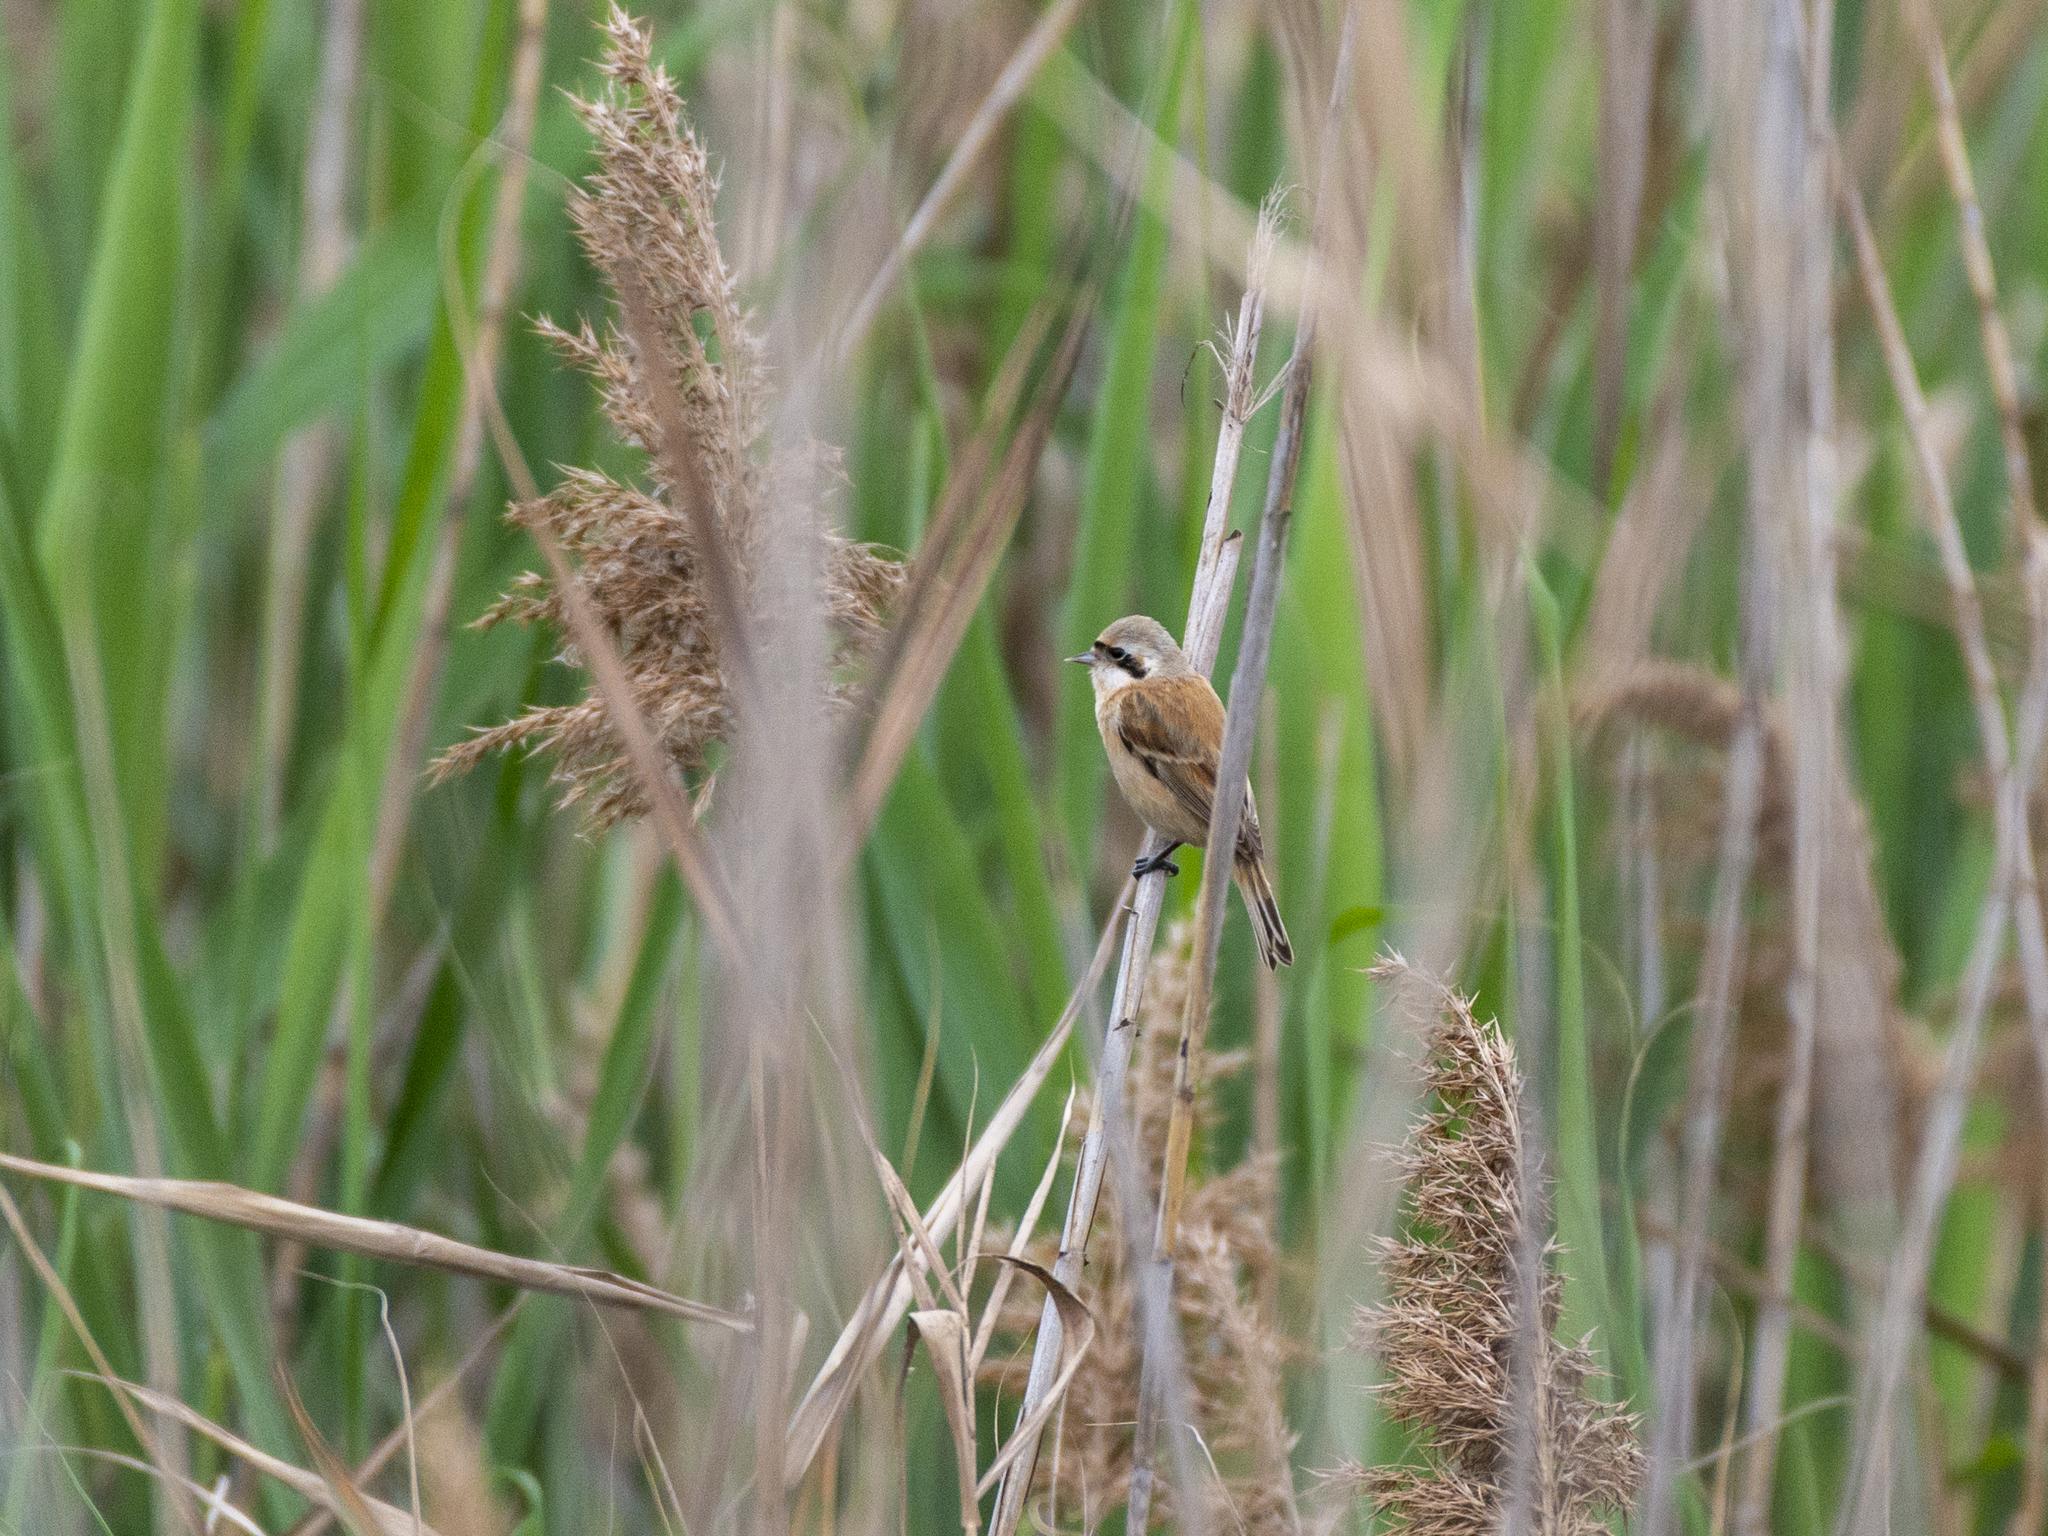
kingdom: Animalia
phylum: Chordata
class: Aves
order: Passeriformes
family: Remizidae
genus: Remiz
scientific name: Remiz consobrinus
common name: Chinese penduline tit
